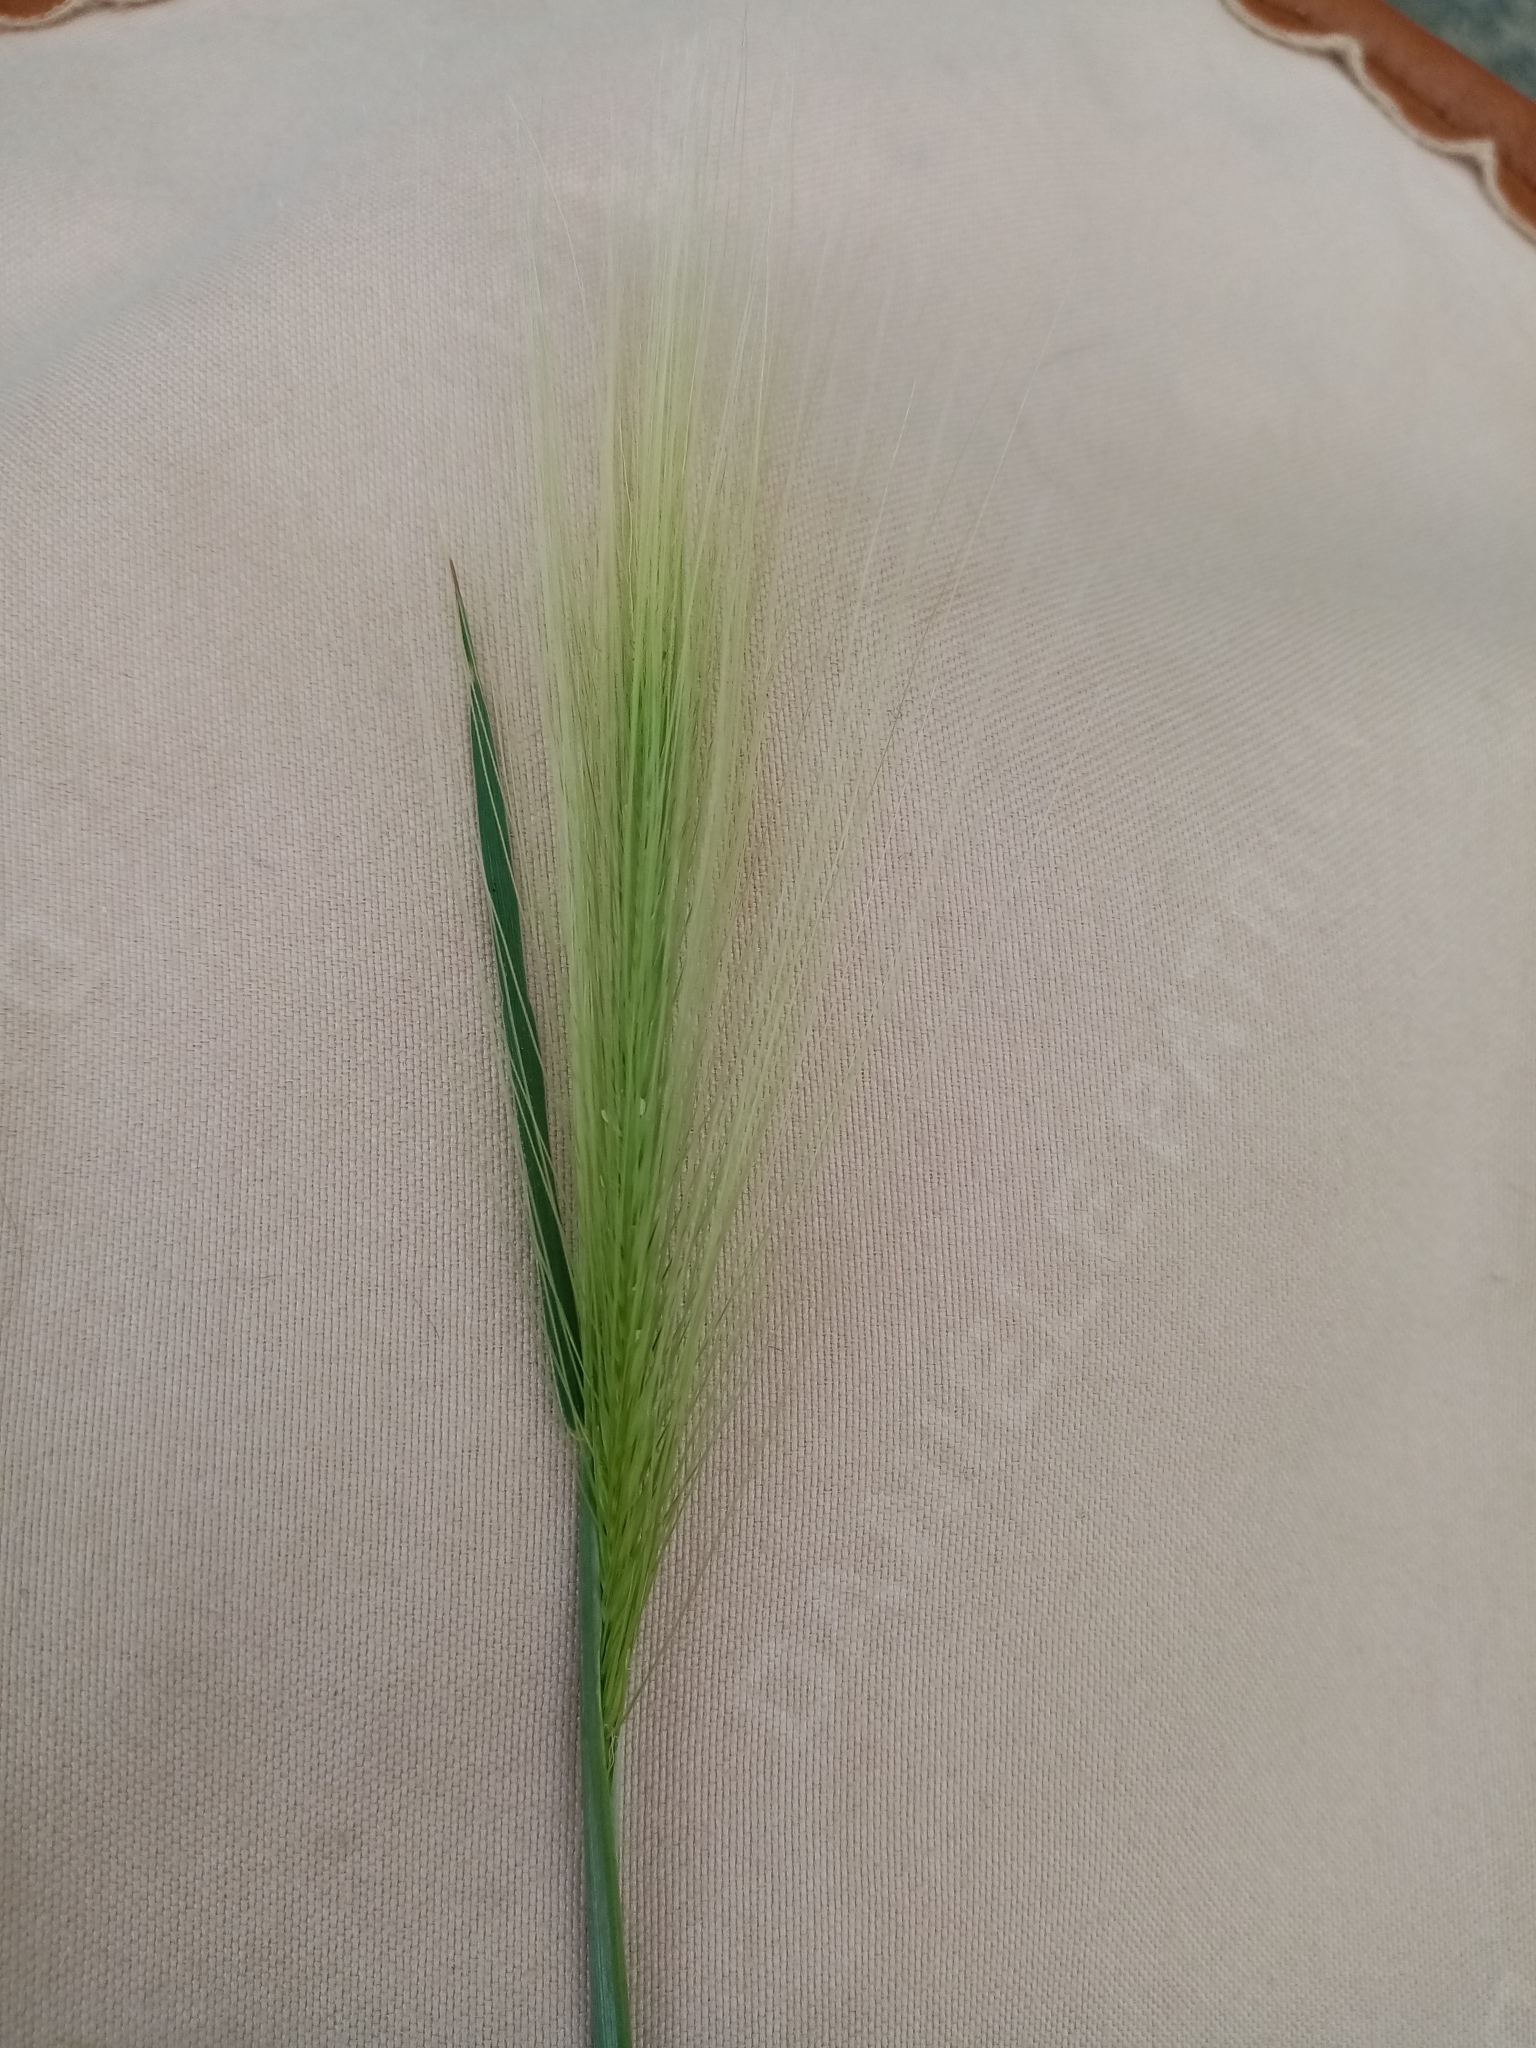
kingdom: Plantae
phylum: Tracheophyta
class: Liliopsida
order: Poales
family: Poaceae
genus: Hordeum
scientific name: Hordeum jubatum
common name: Foxtail barley
